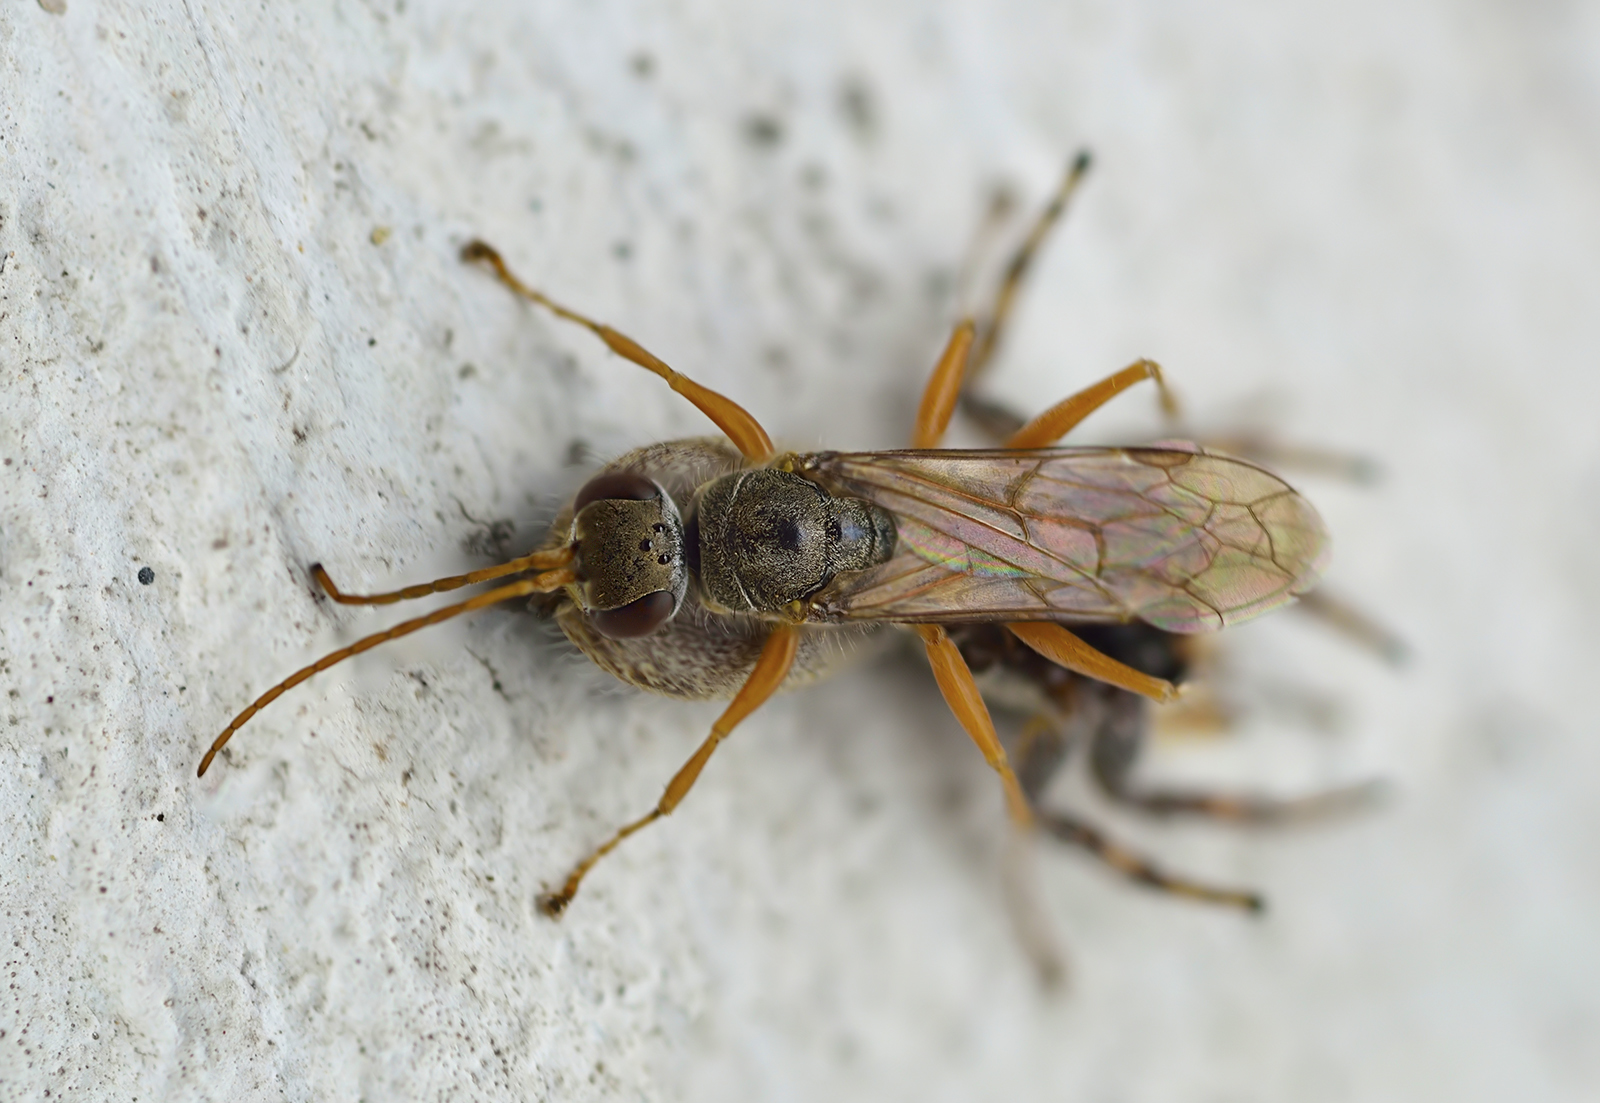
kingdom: Animalia
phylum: Arthropoda
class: Insecta
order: Hymenoptera
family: Pompilidae
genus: Machaerothrix
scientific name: Machaerothrix salticidus
